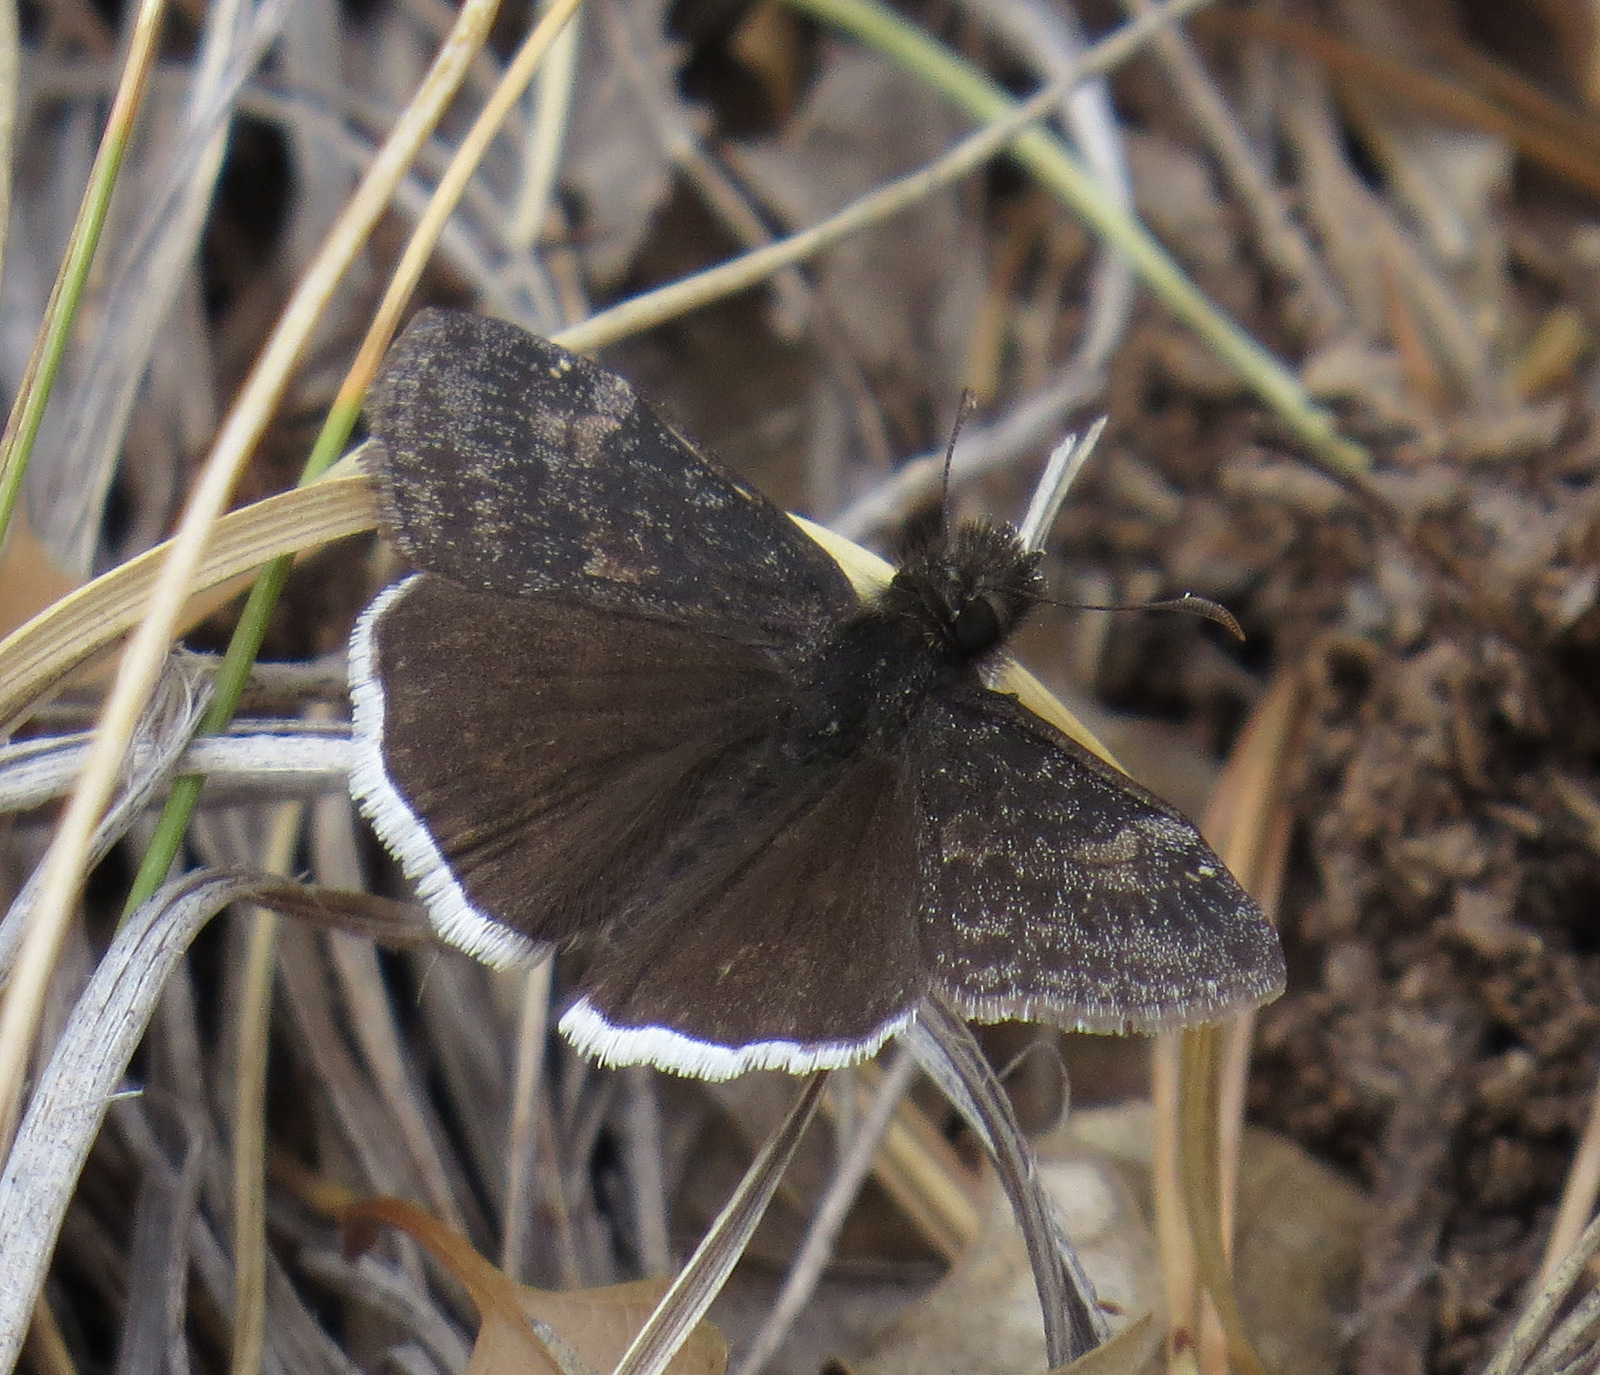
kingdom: Animalia
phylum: Arthropoda
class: Insecta
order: Lepidoptera
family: Hesperiidae
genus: Erynnis
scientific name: Erynnis funeralis
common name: Funereal duskywing
